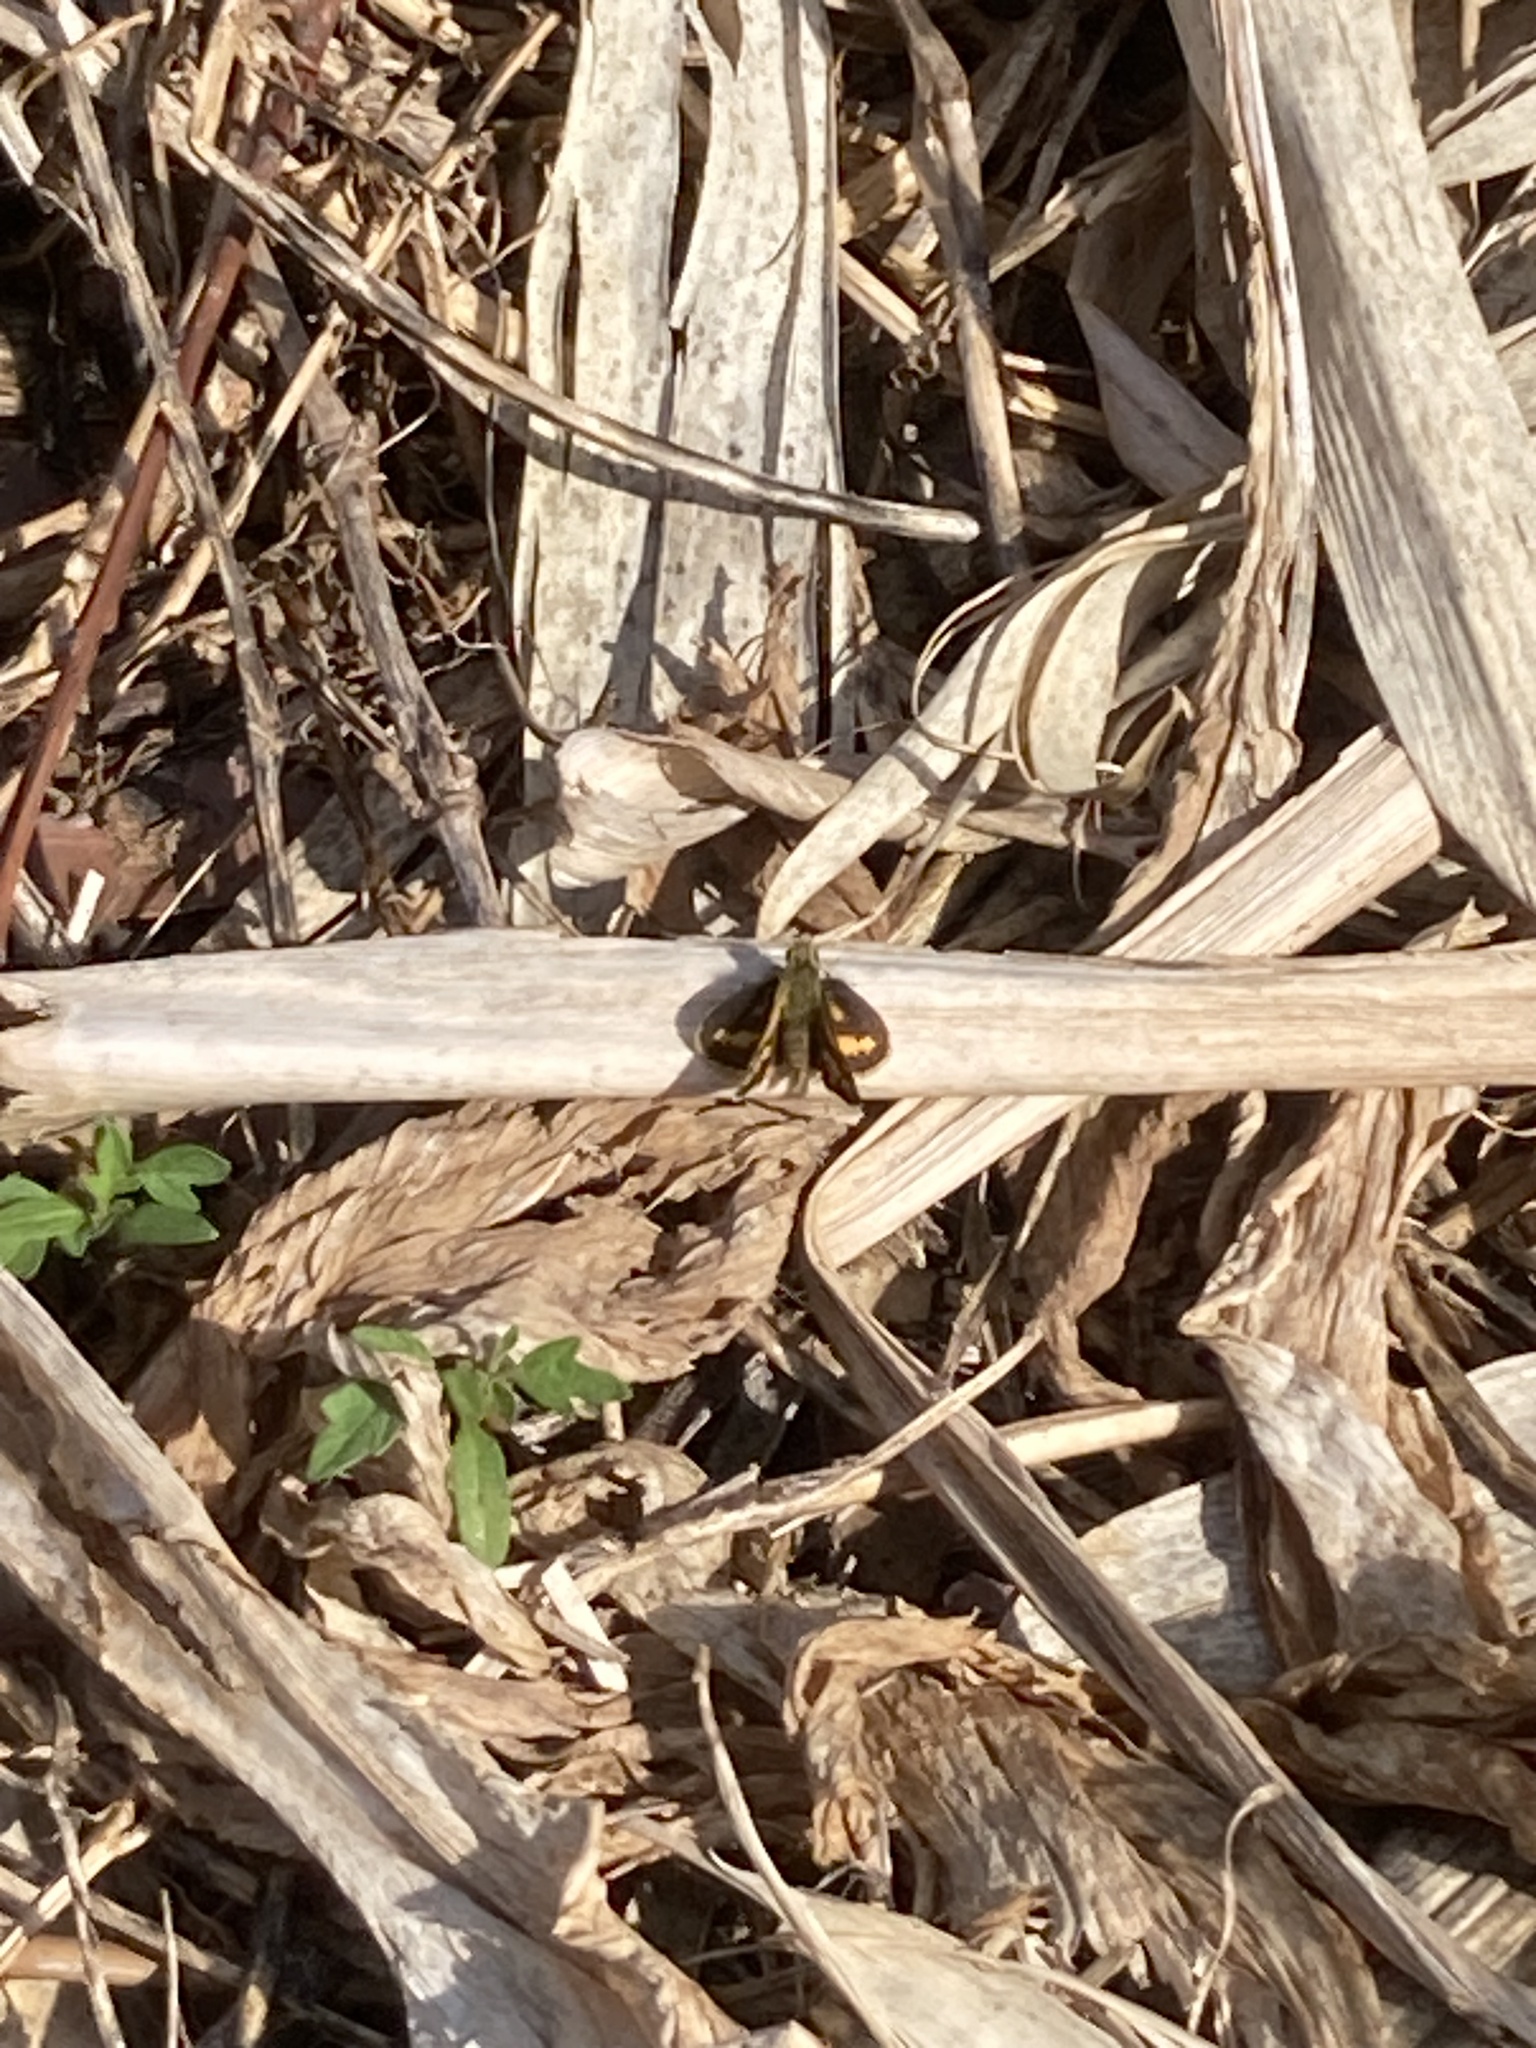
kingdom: Animalia
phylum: Arthropoda
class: Insecta
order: Lepidoptera
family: Hesperiidae
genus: Ocybadistes
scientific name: Ocybadistes walkeri
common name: Yellow-banded dart
